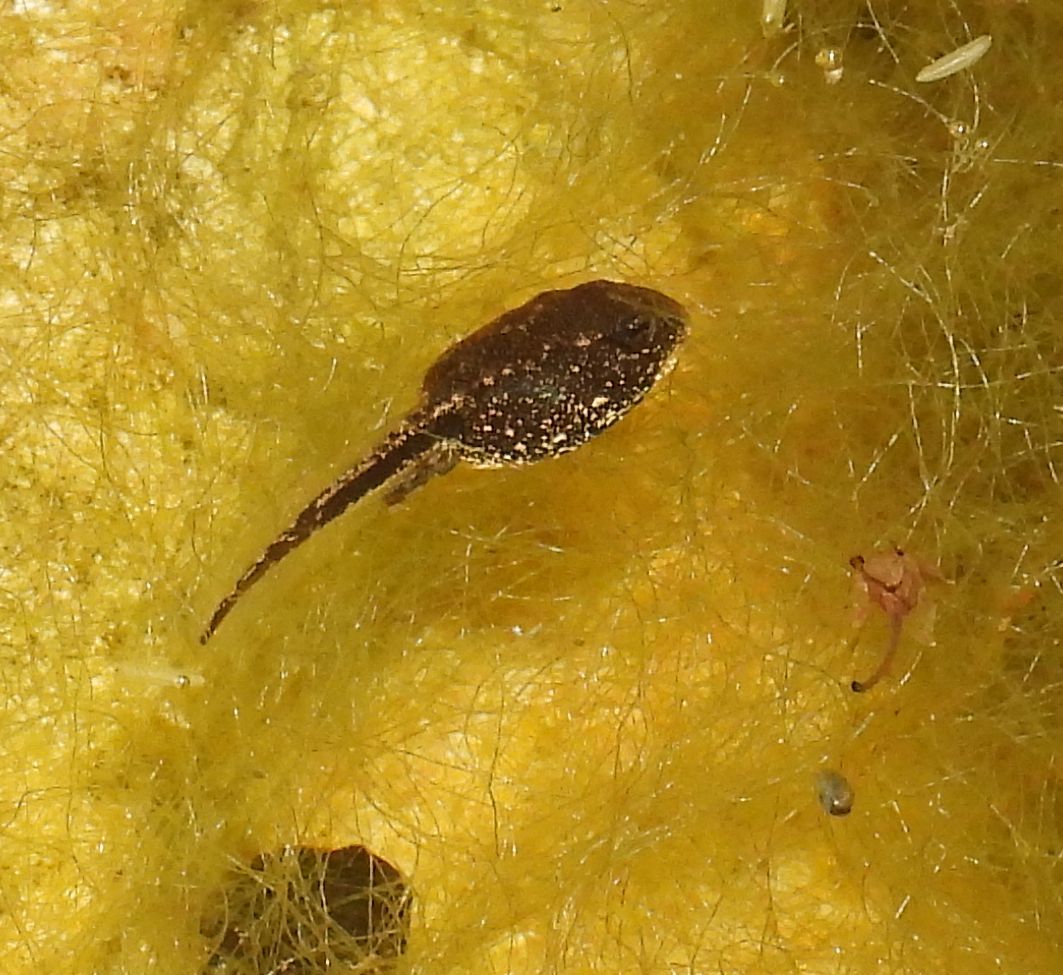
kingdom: Animalia
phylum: Chordata
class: Amphibia
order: Anura
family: Ranidae
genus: Lithobates
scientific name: Lithobates sylvaticus
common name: Wood frog
